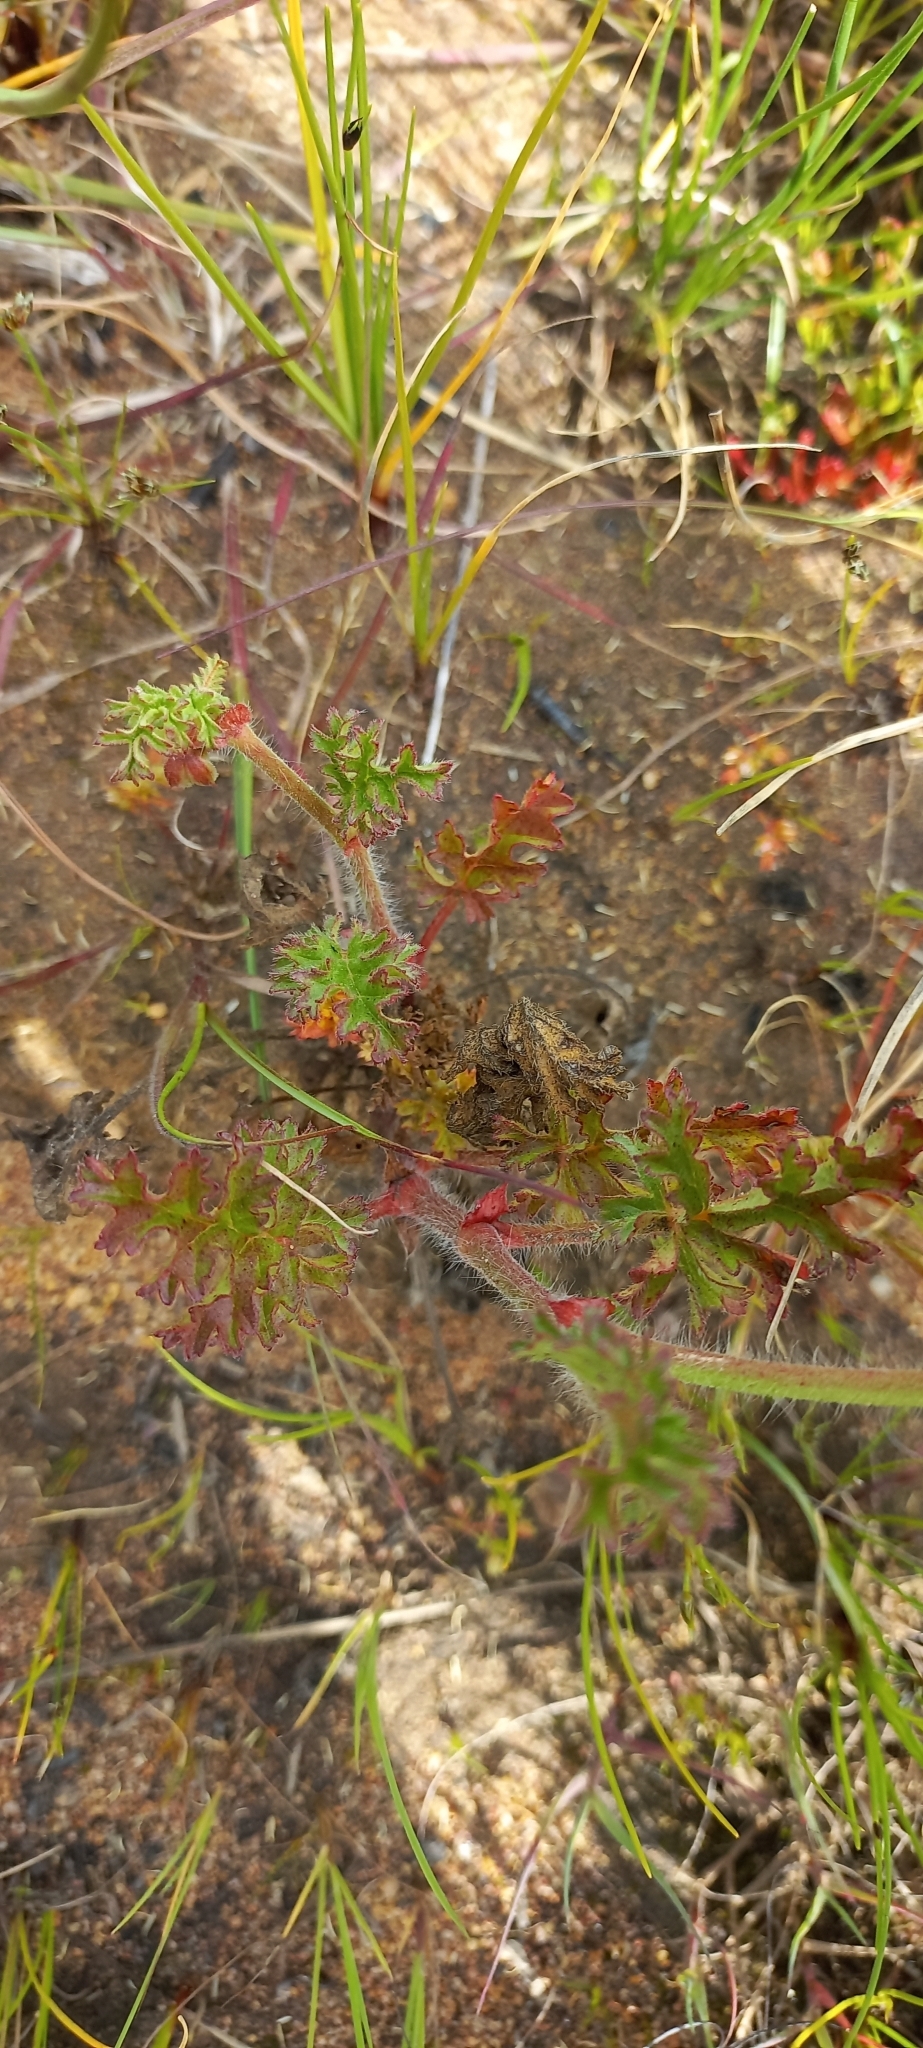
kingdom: Plantae
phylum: Tracheophyta
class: Magnoliopsida
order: Geraniales
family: Geraniaceae
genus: Pelargonium
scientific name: Pelargonium myrrhifolium
